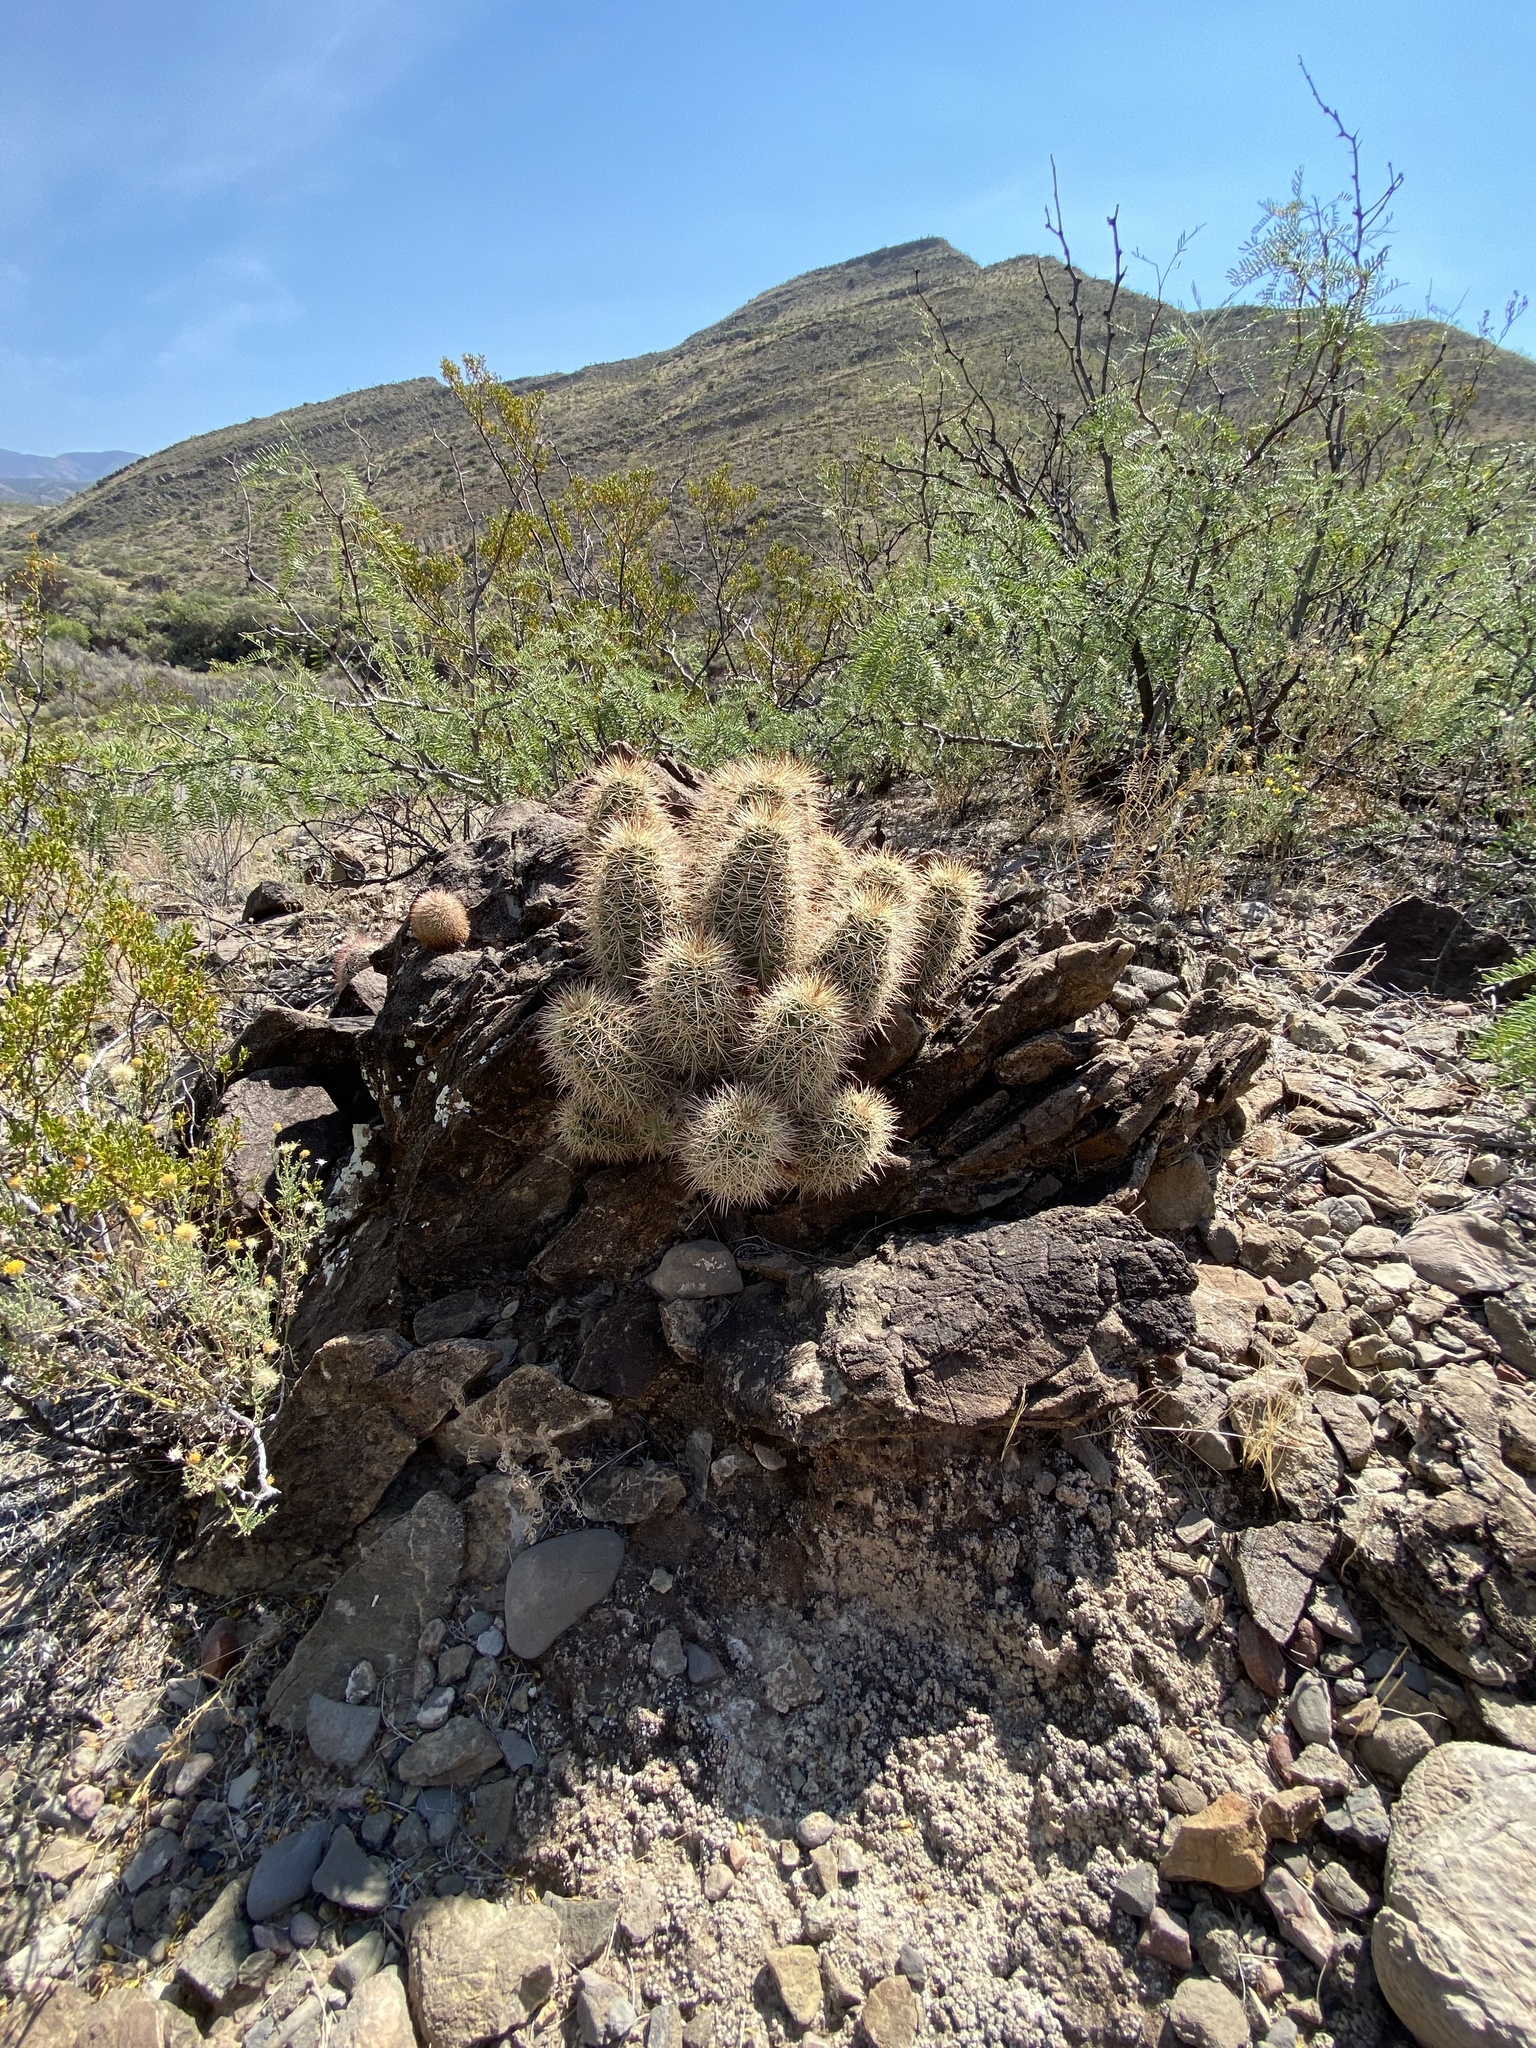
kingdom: Plantae
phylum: Tracheophyta
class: Magnoliopsida
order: Caryophyllales
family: Cactaceae
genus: Echinocereus
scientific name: Echinocereus coccineus
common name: Scarlet hedgehog cactus
